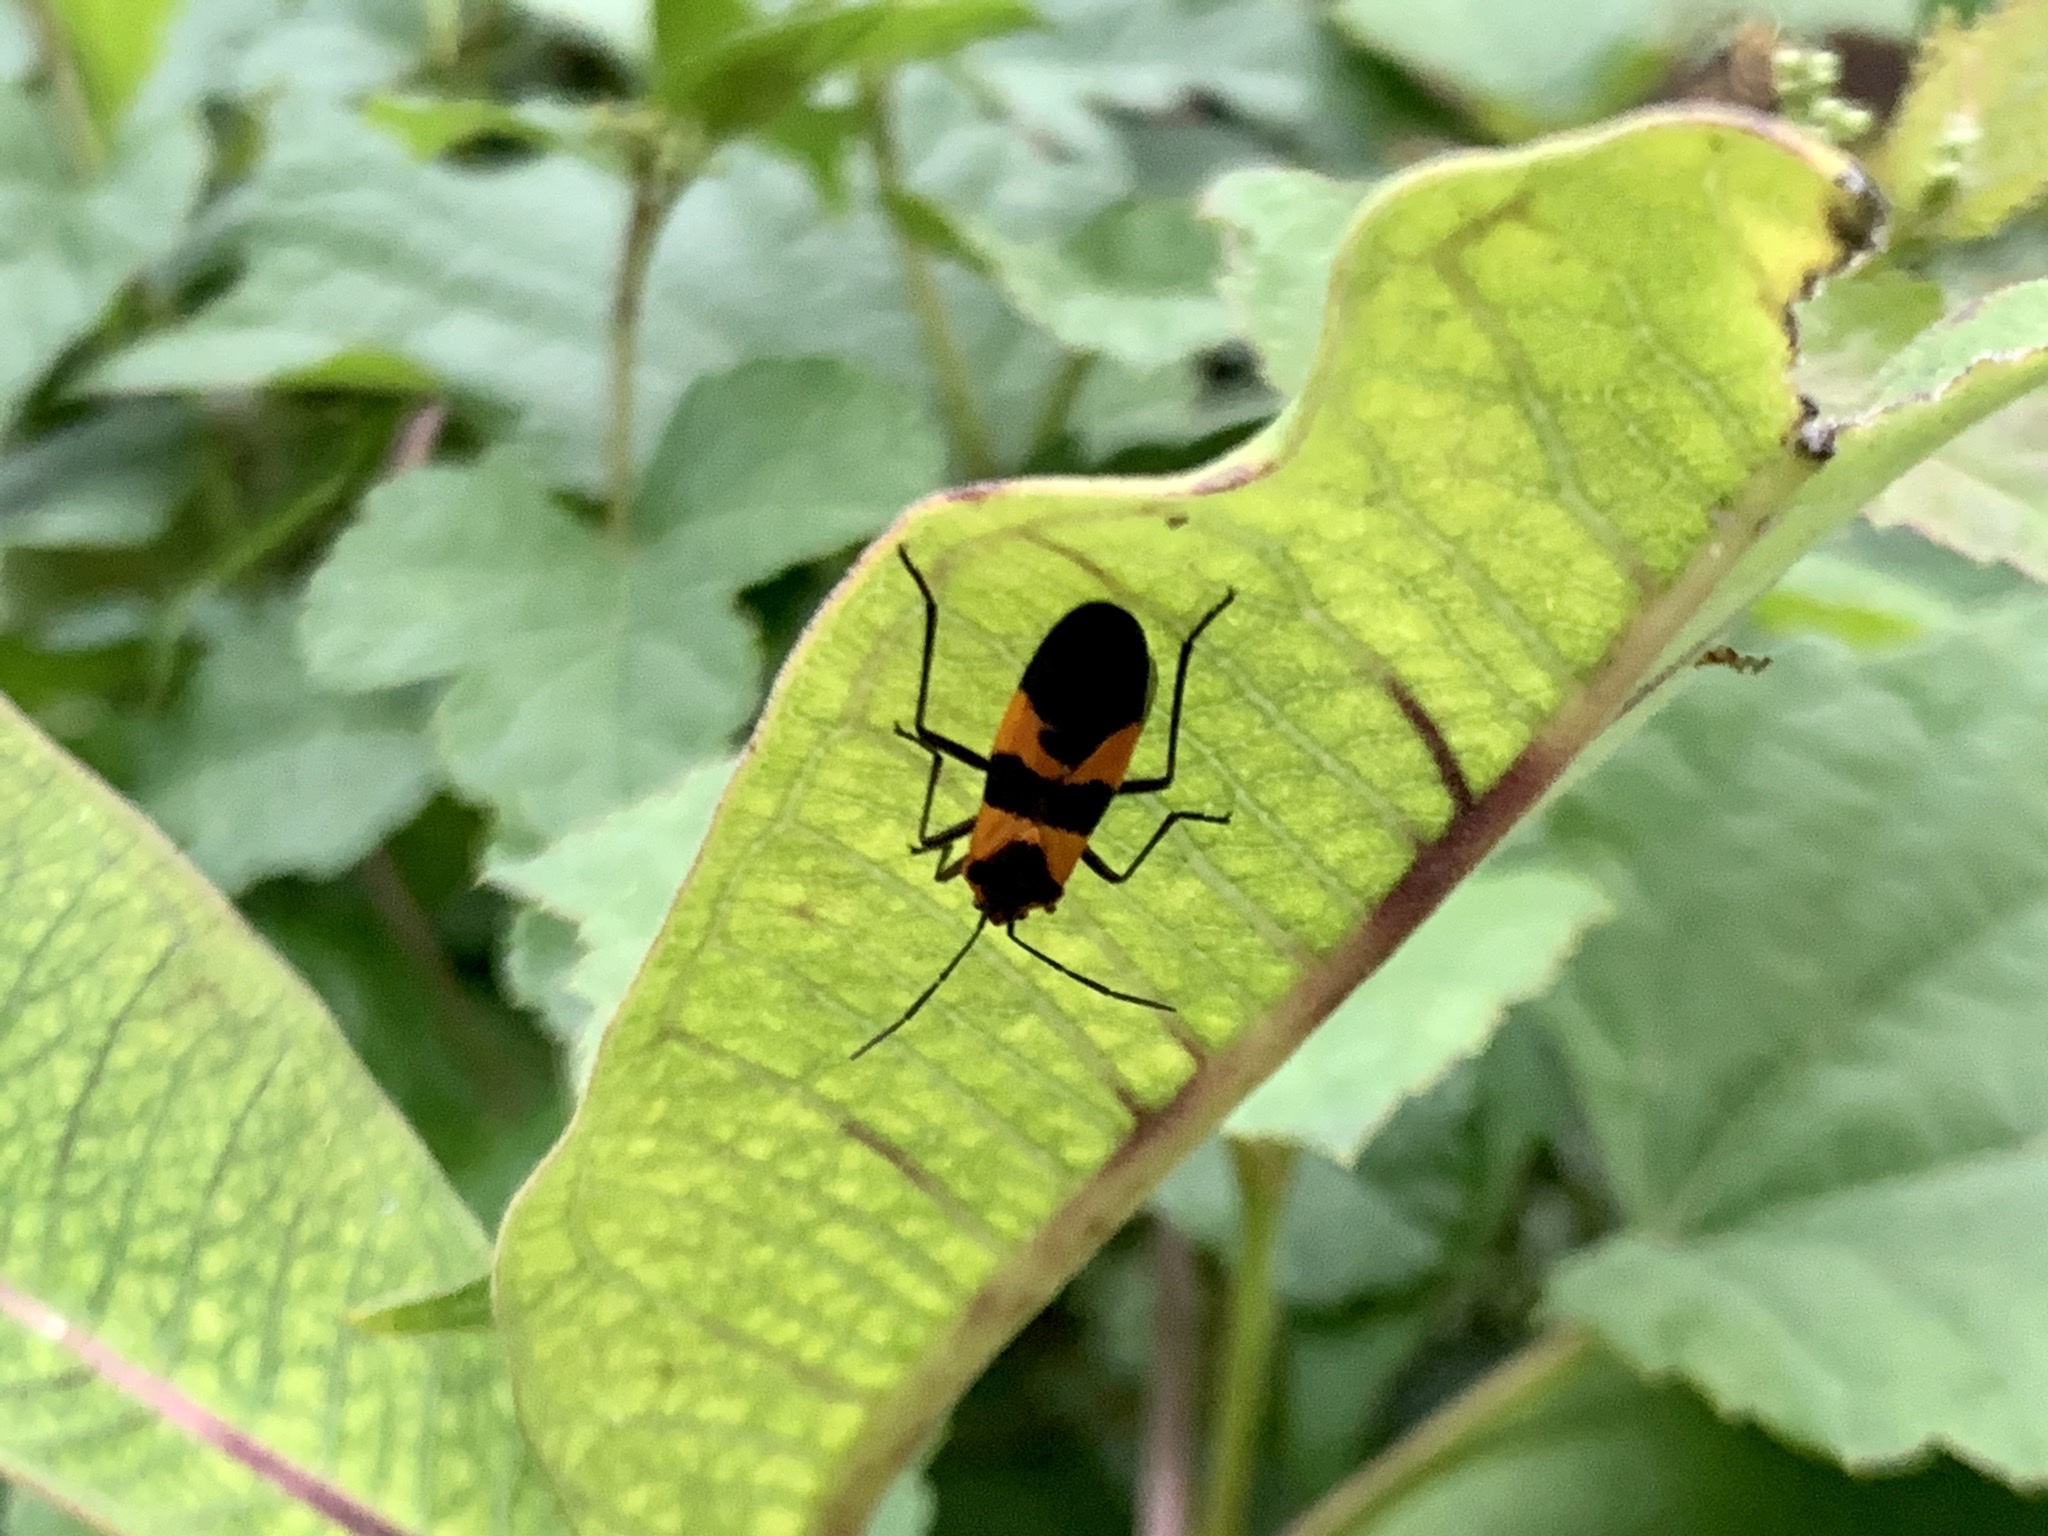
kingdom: Animalia
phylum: Arthropoda
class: Insecta
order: Hemiptera
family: Lygaeidae
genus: Oncopeltus
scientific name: Oncopeltus fasciatus
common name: Large milkweed bug
